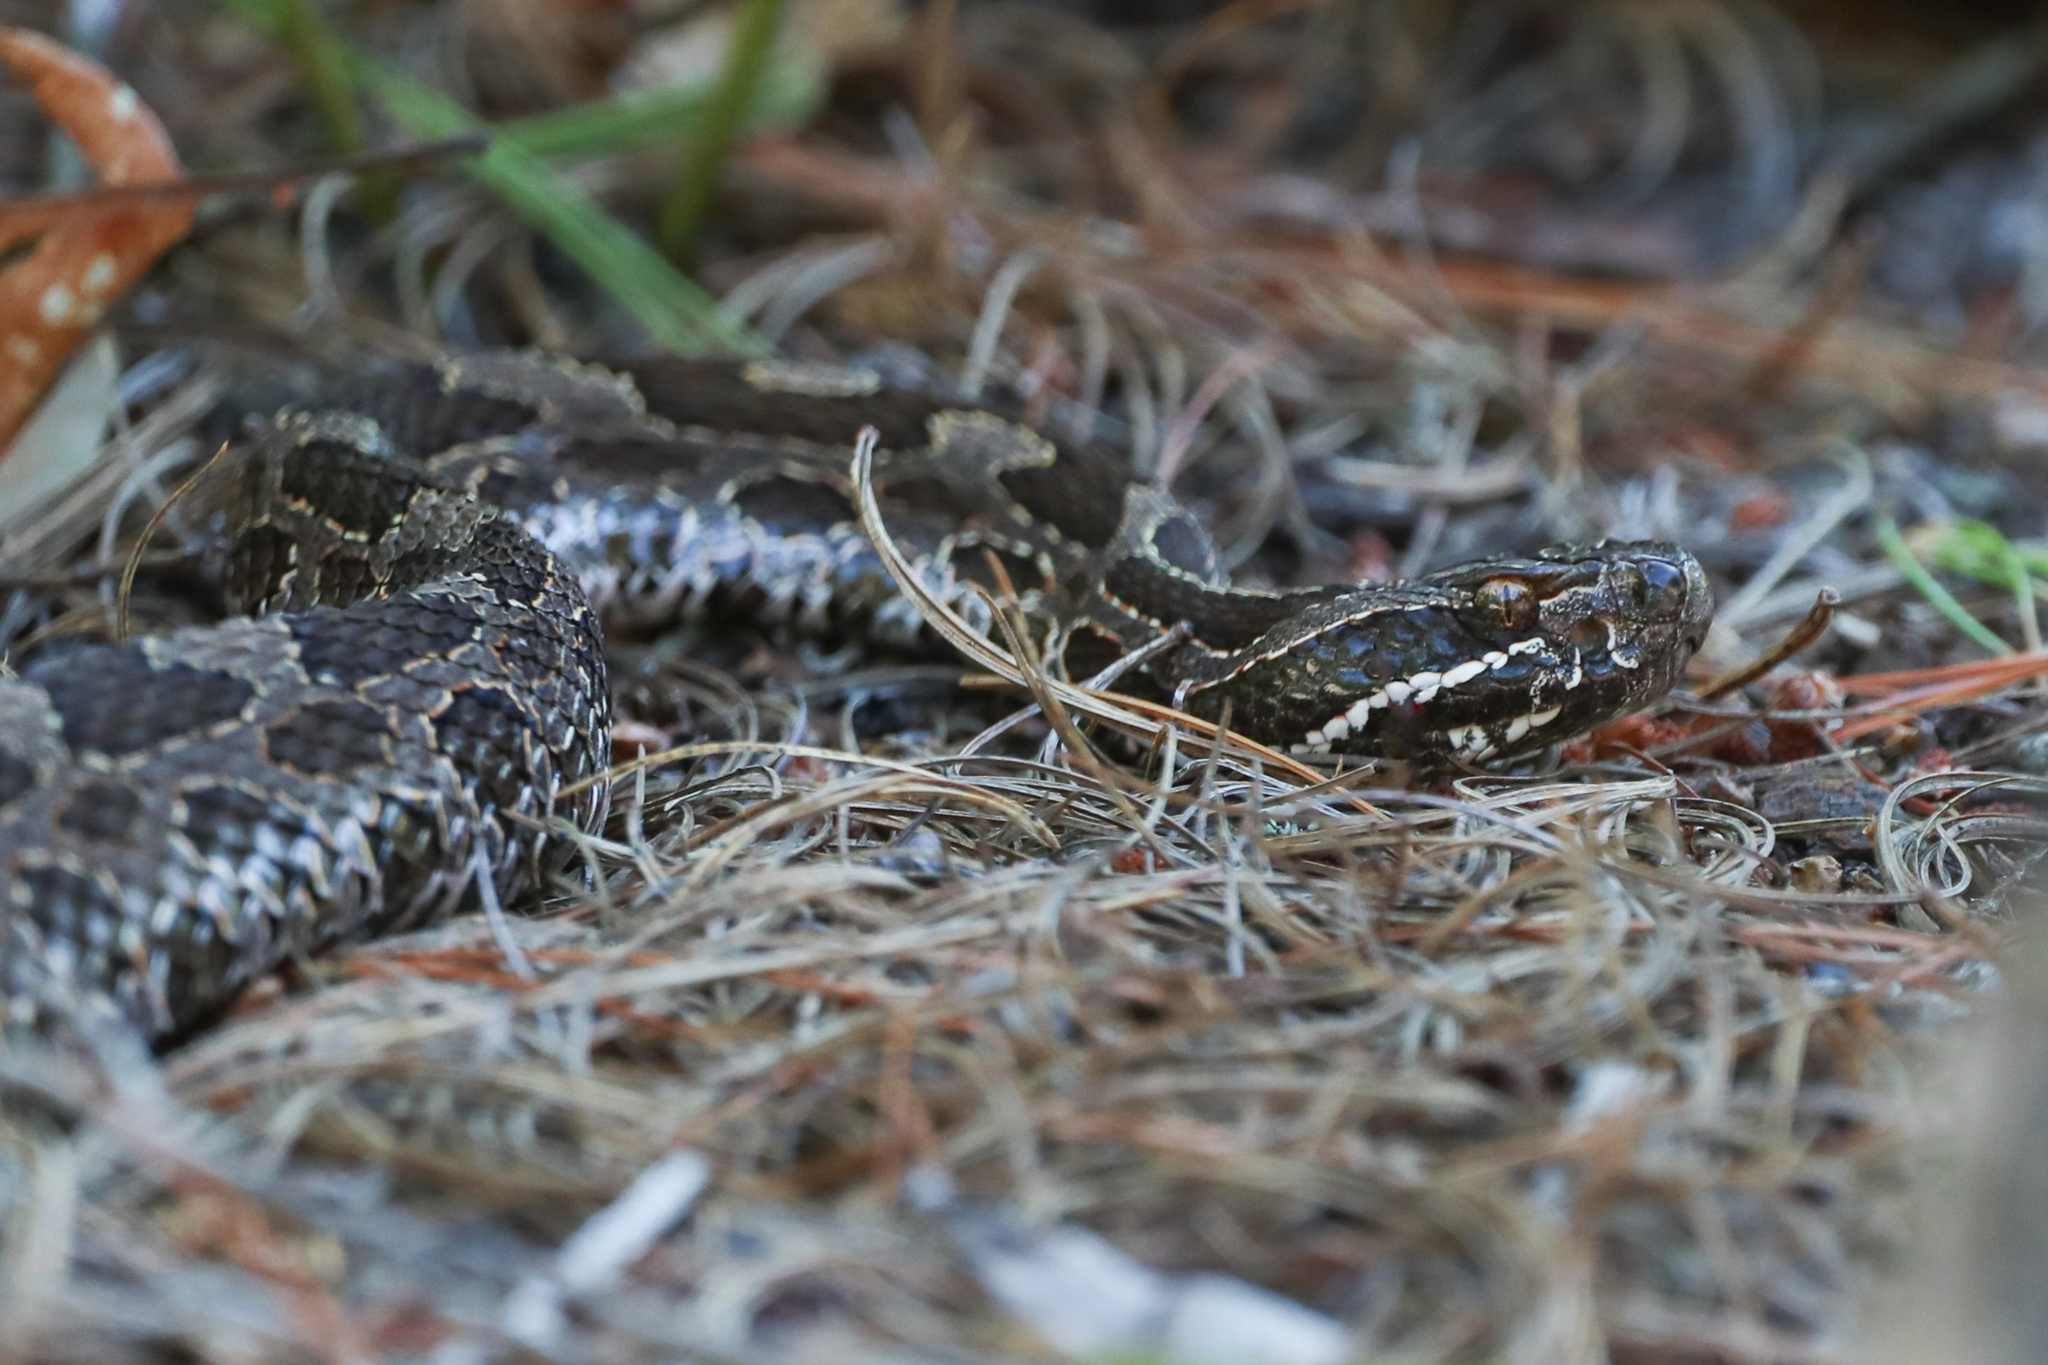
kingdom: Animalia
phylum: Chordata
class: Squamata
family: Viperidae
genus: Sistrurus
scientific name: Sistrurus catenatus
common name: Massasauga
